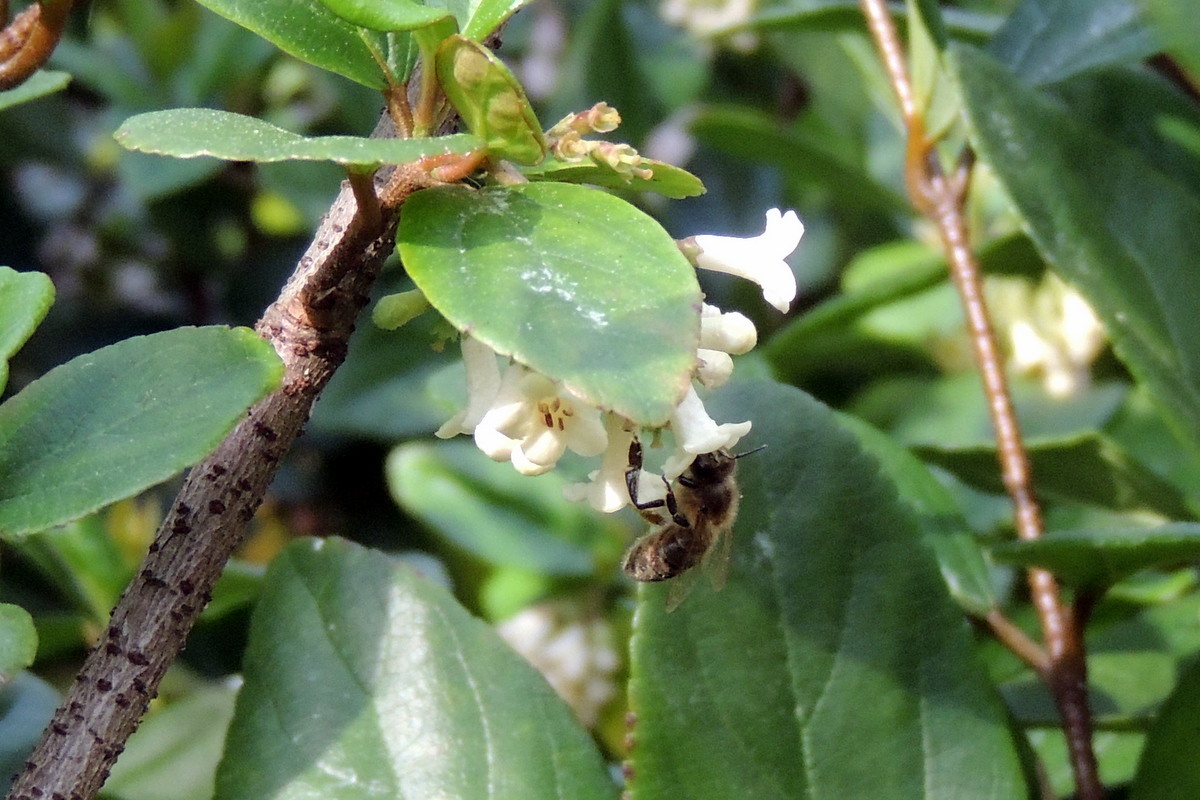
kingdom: Animalia
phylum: Arthropoda
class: Insecta
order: Hymenoptera
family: Apidae
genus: Apis
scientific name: Apis mellifera
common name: Honey bee
